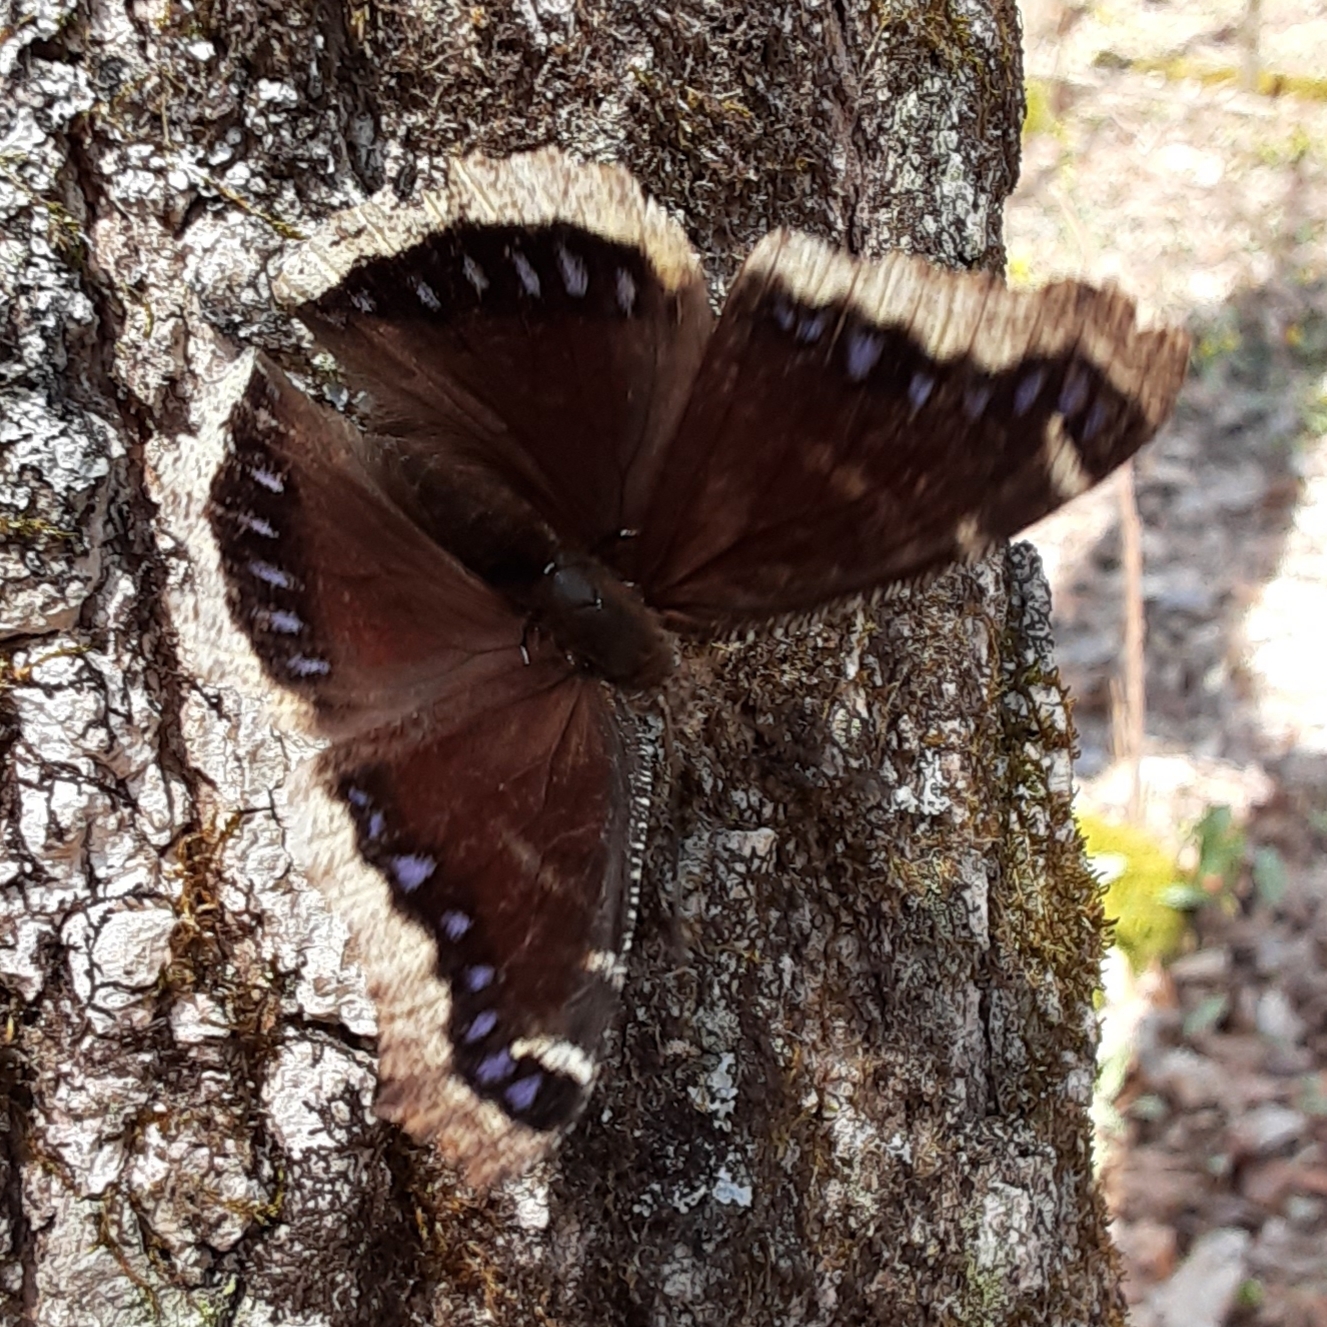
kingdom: Animalia
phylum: Arthropoda
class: Insecta
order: Lepidoptera
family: Nymphalidae
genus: Nymphalis
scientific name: Nymphalis antiopa
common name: Camberwell beauty
